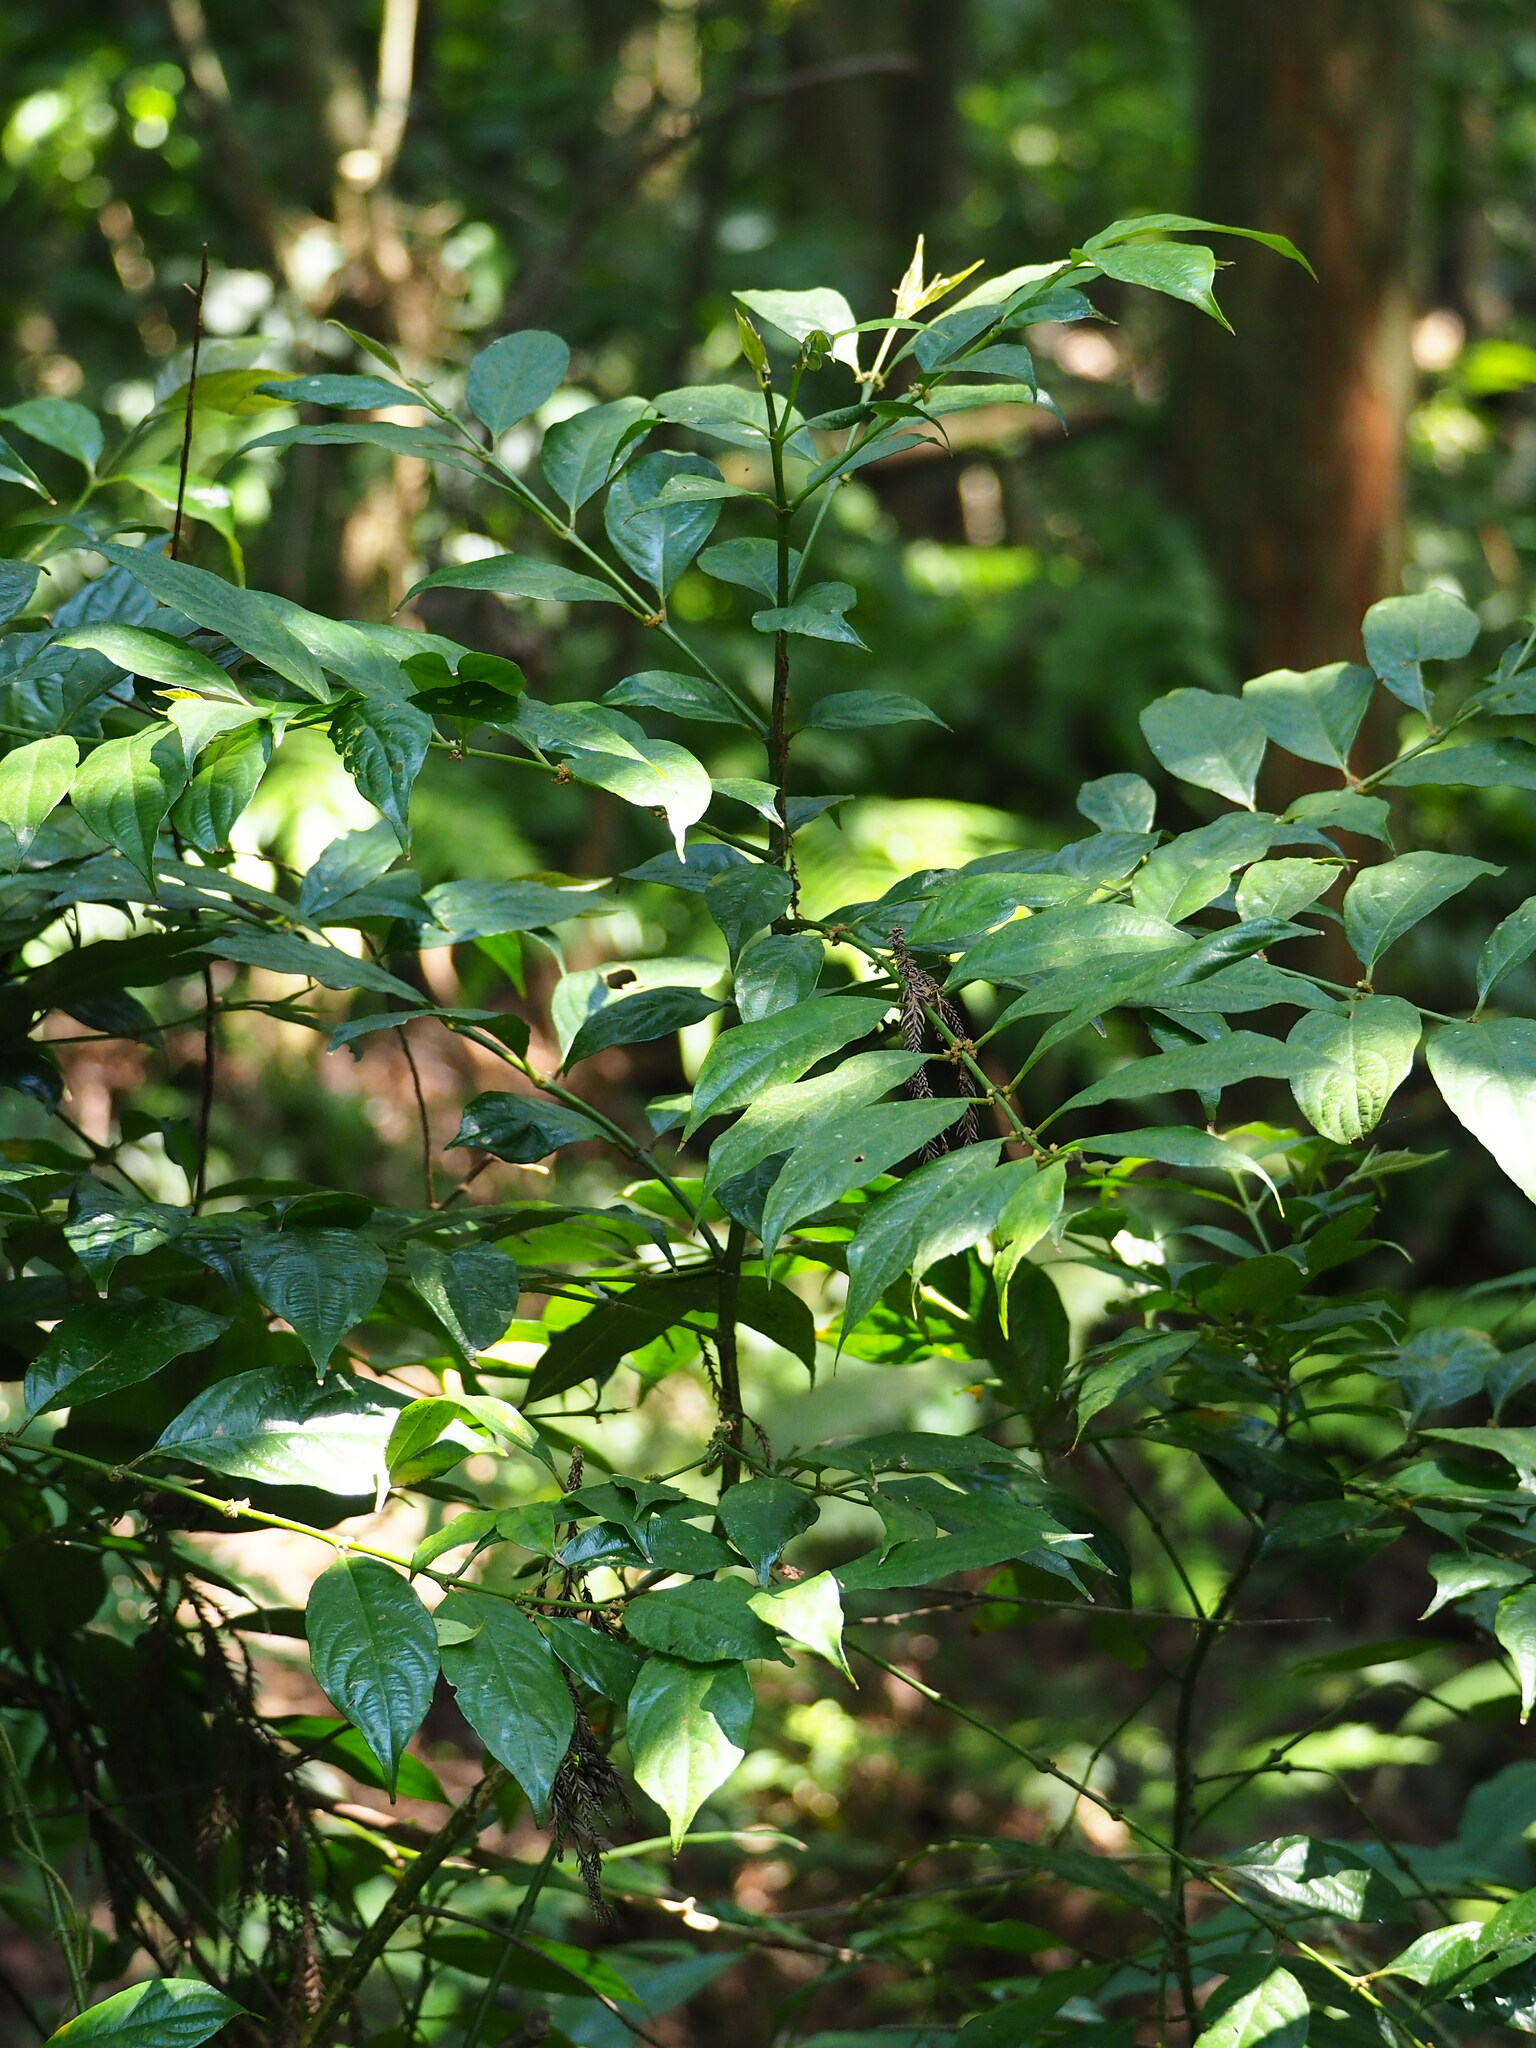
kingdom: Plantae
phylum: Tracheophyta
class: Magnoliopsida
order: Gentianales
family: Rubiaceae
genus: Lasianthus
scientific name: Lasianthus fordii
